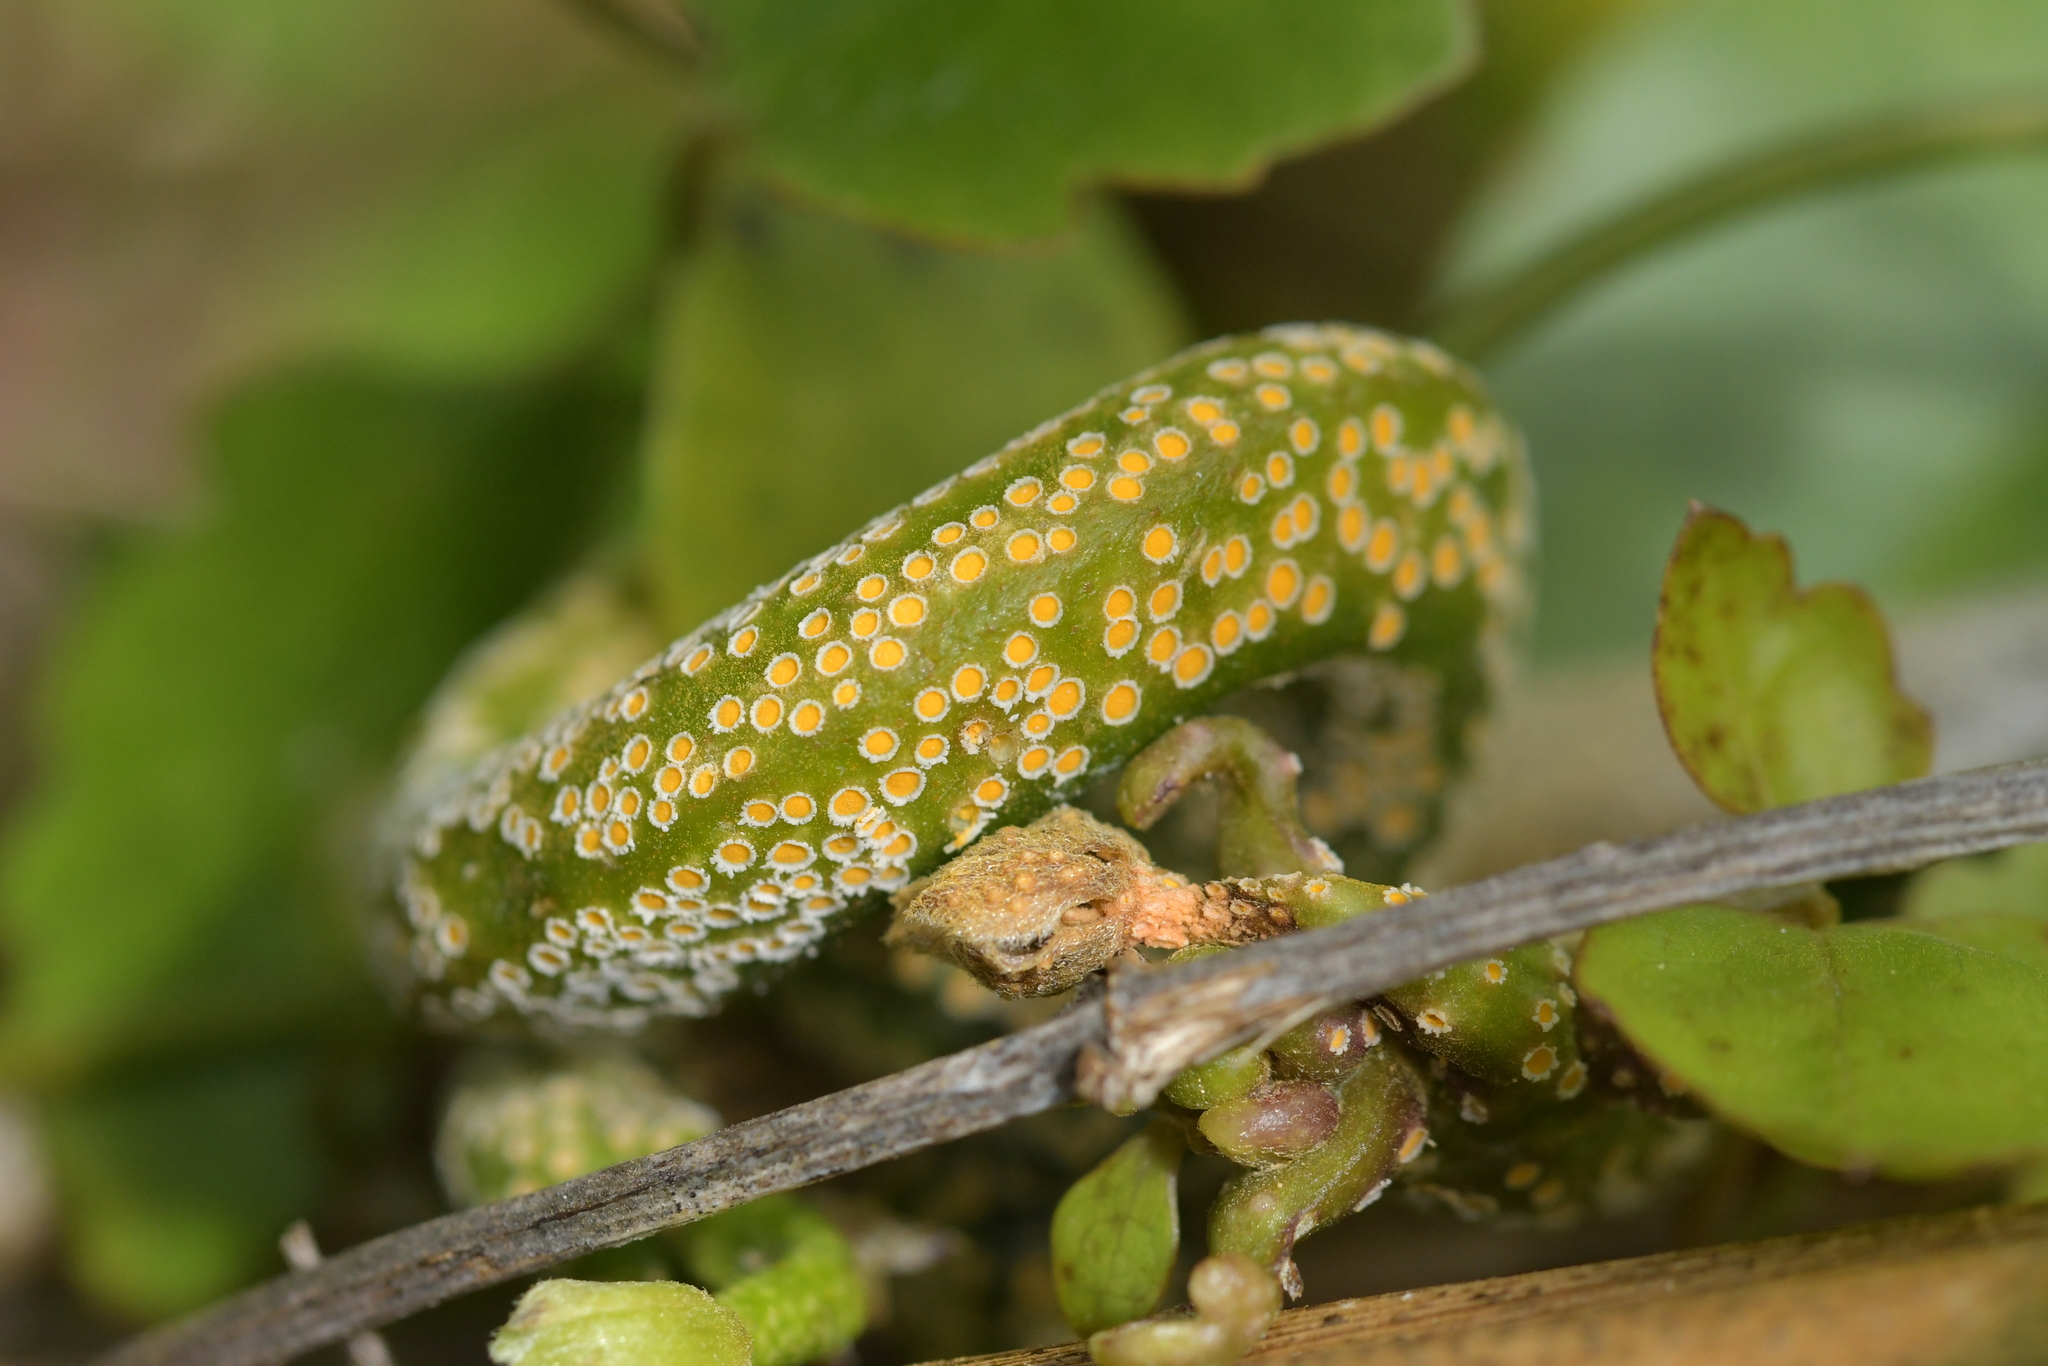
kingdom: Fungi
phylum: Basidiomycota
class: Pucciniomycetes
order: Pucciniales
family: Pucciniaceae
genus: Puccinia
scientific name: Puccinia otagensis
